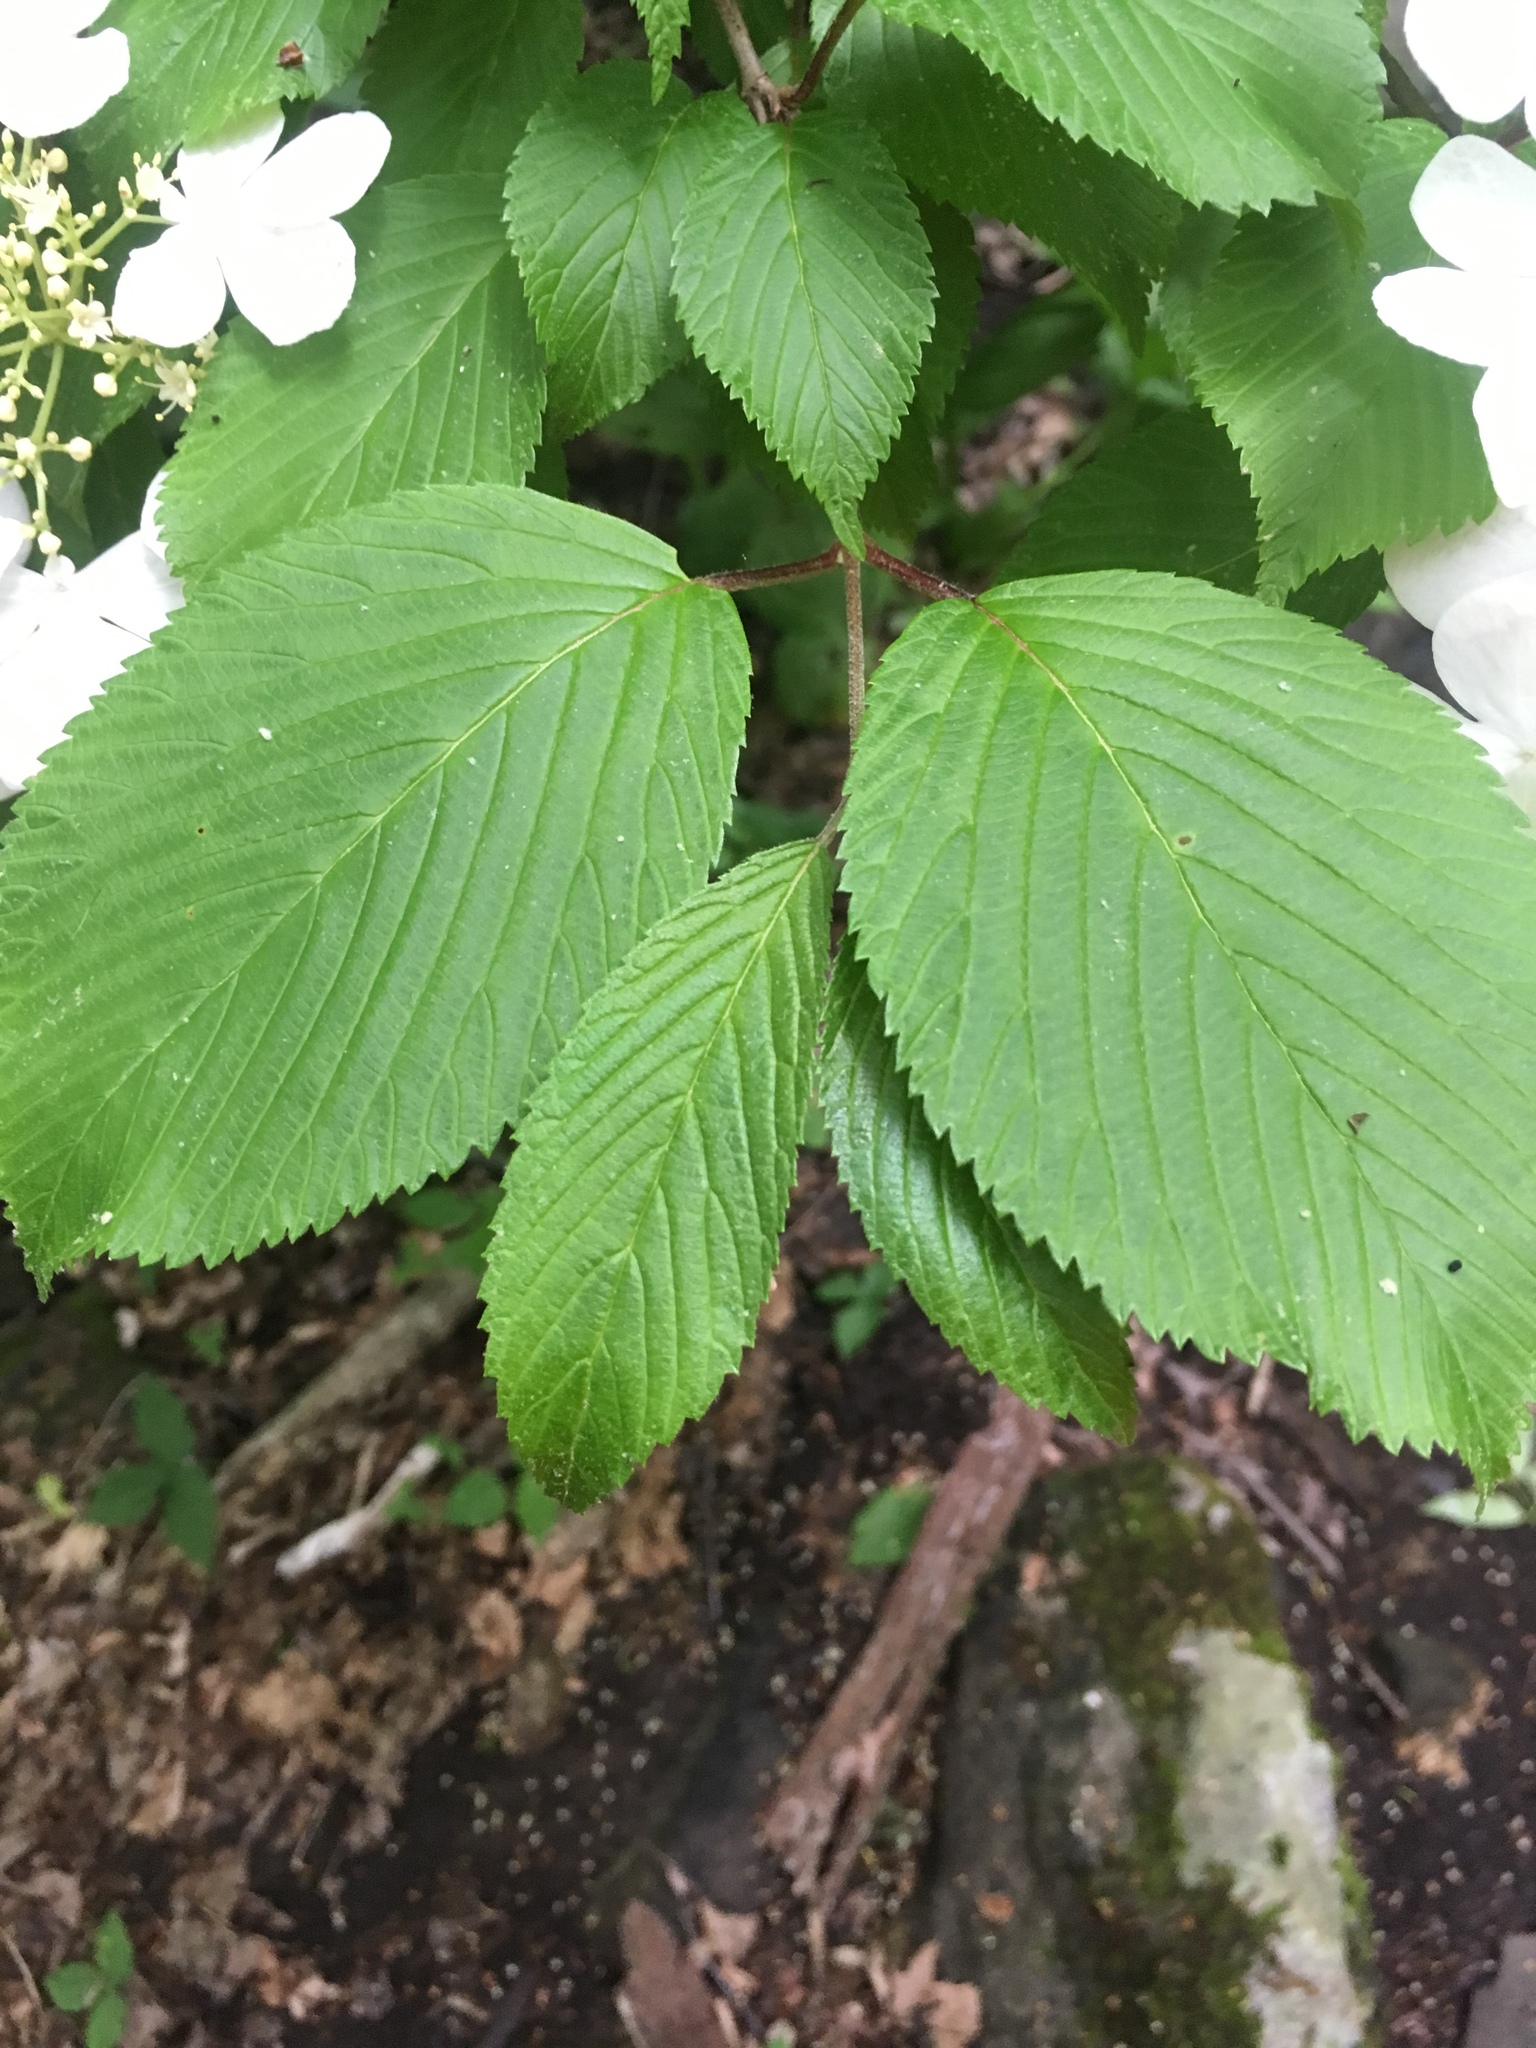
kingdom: Plantae
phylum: Tracheophyta
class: Magnoliopsida
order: Dipsacales
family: Viburnaceae
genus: Viburnum
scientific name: Viburnum plicatum
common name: Japanese snowball
